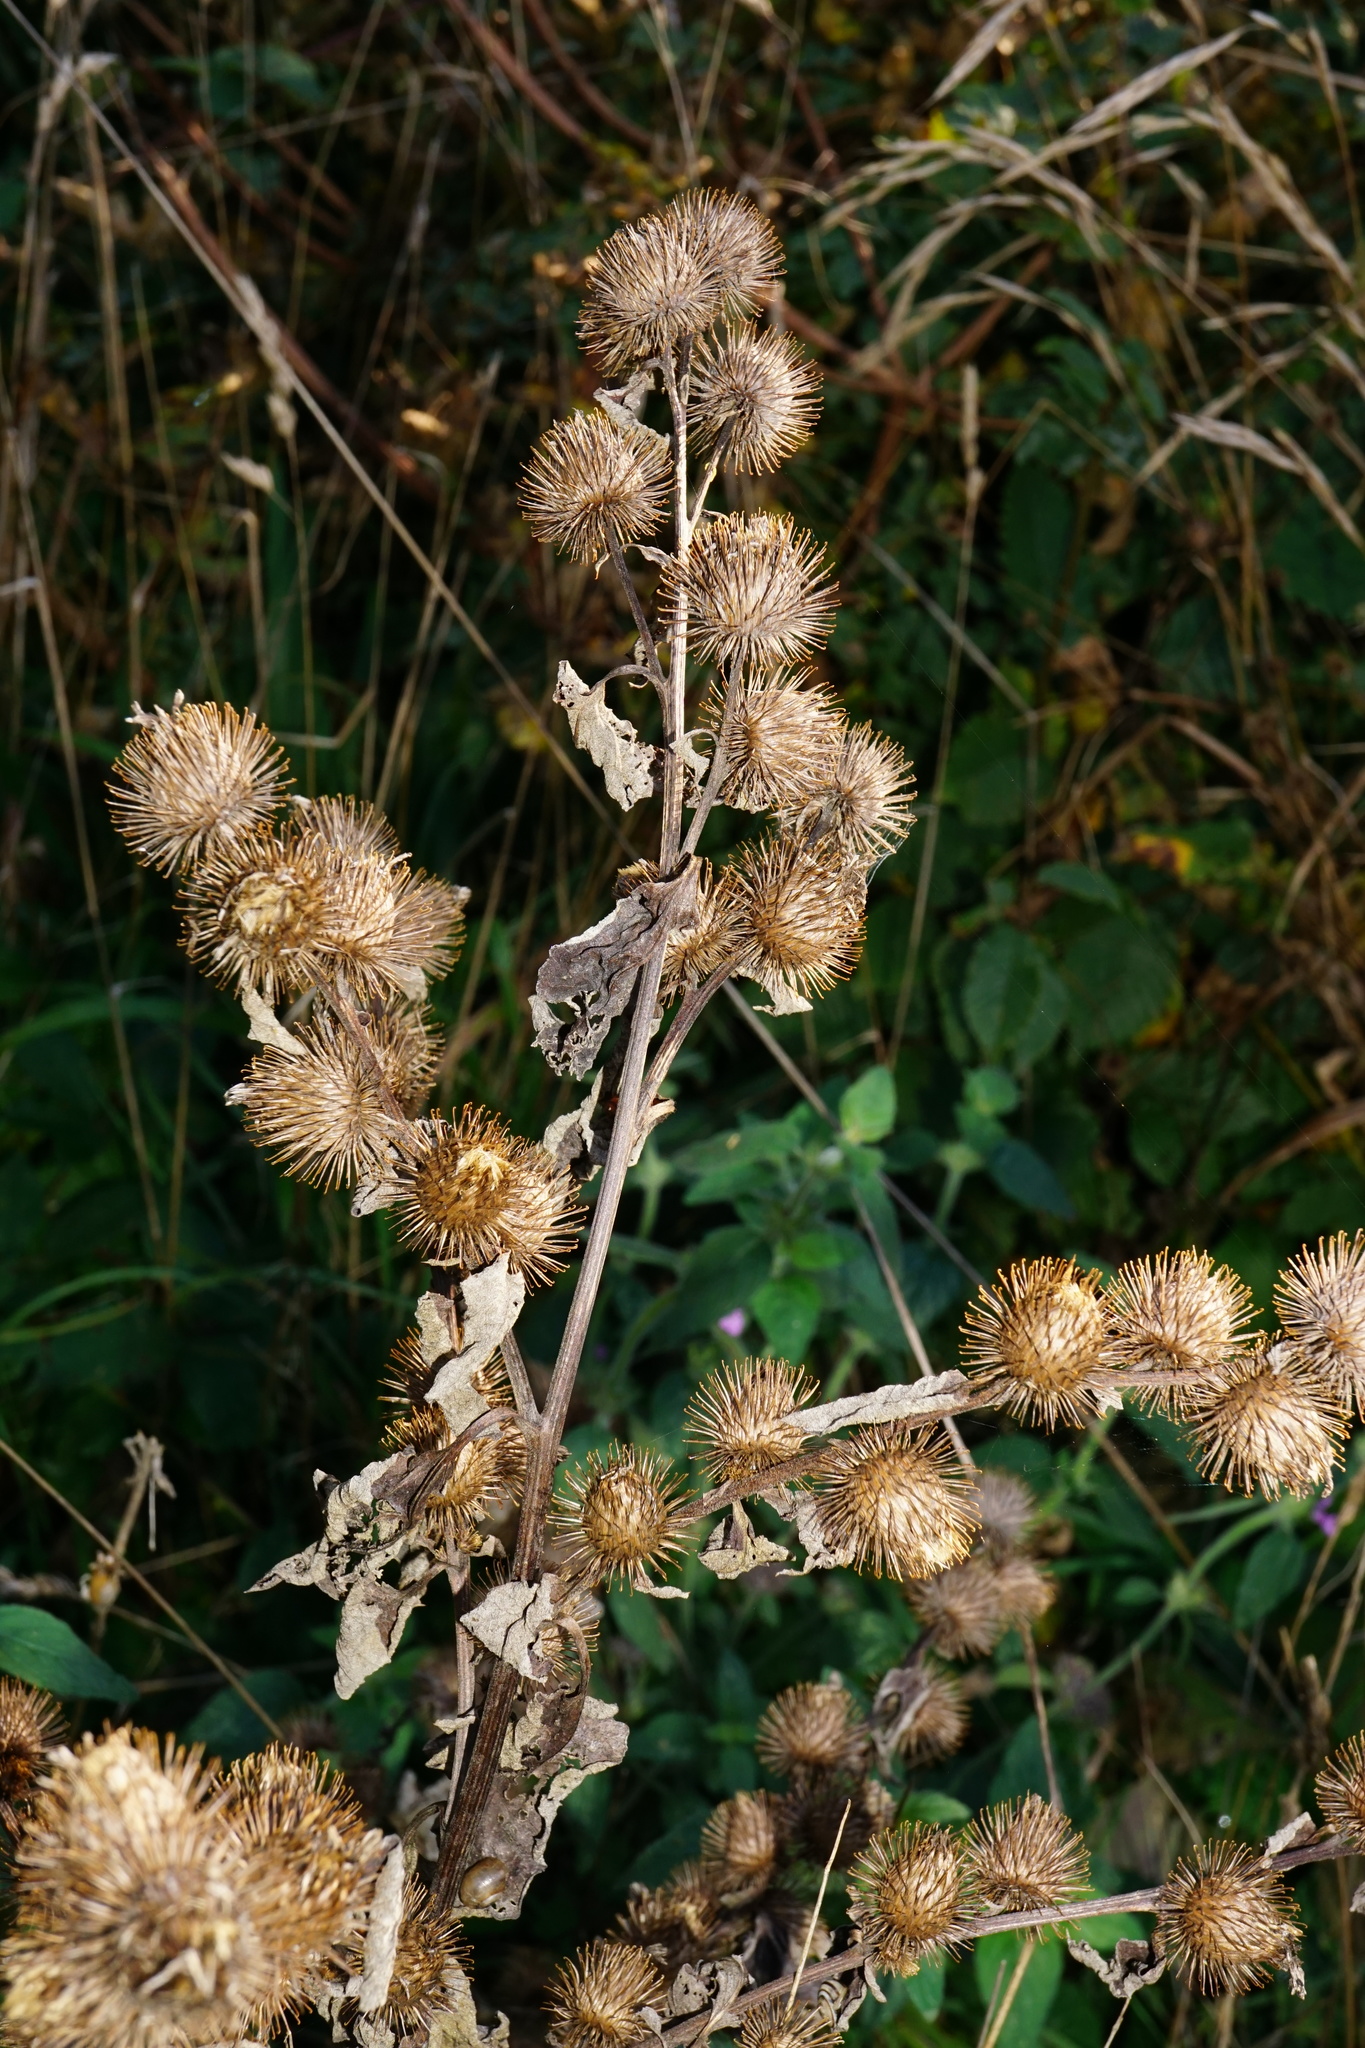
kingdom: Plantae
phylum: Tracheophyta
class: Magnoliopsida
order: Asterales
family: Asteraceae
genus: Arctium
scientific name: Arctium minus
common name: Lesser burdock
